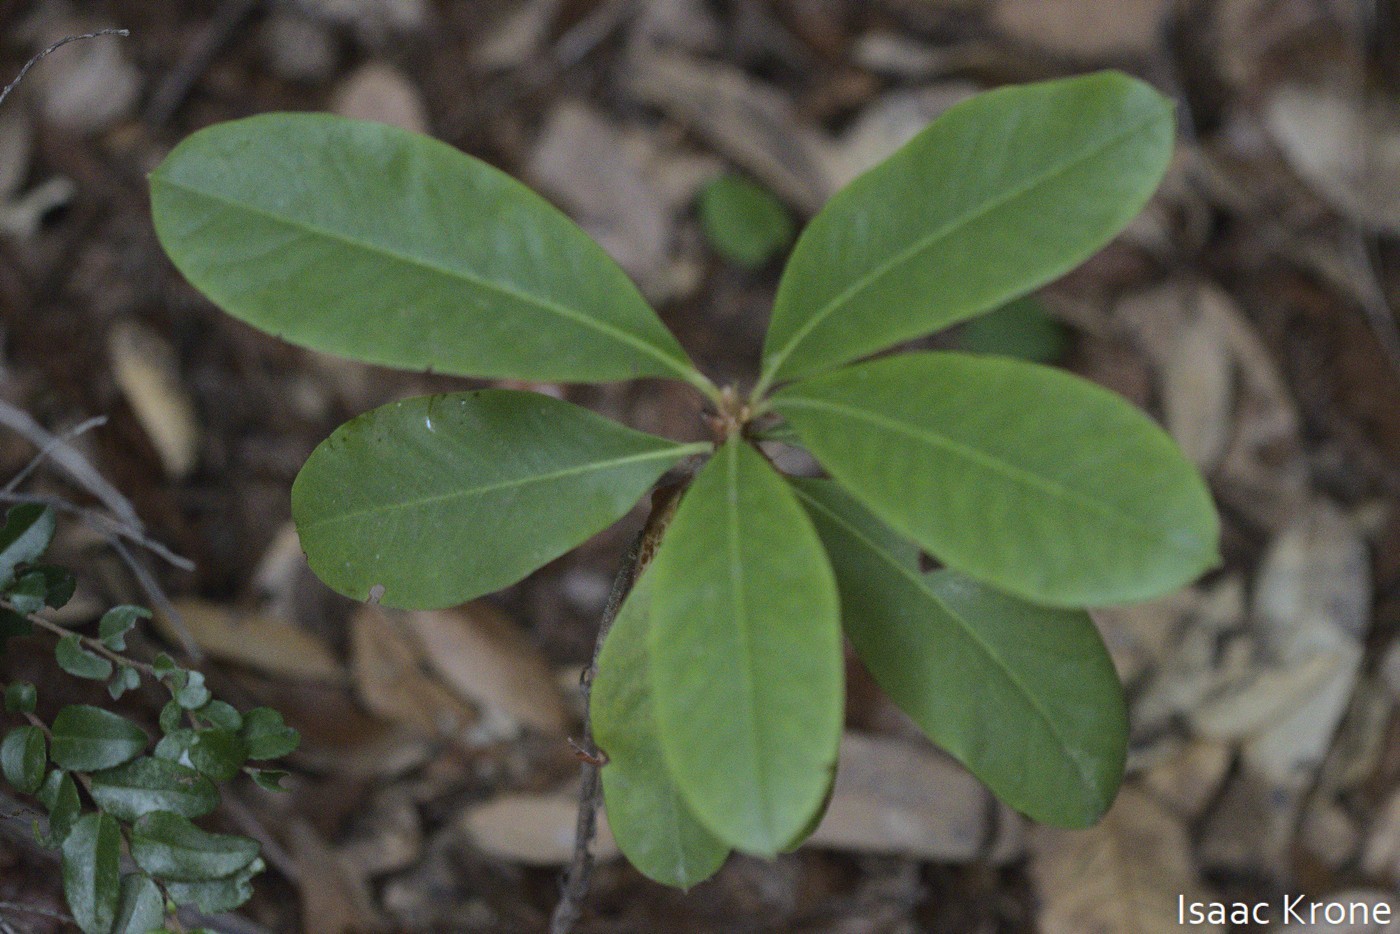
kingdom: Plantae
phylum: Tracheophyta
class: Magnoliopsida
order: Ericales
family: Ericaceae
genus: Rhododendron
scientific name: Rhododendron macrophyllum
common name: California rose bay
